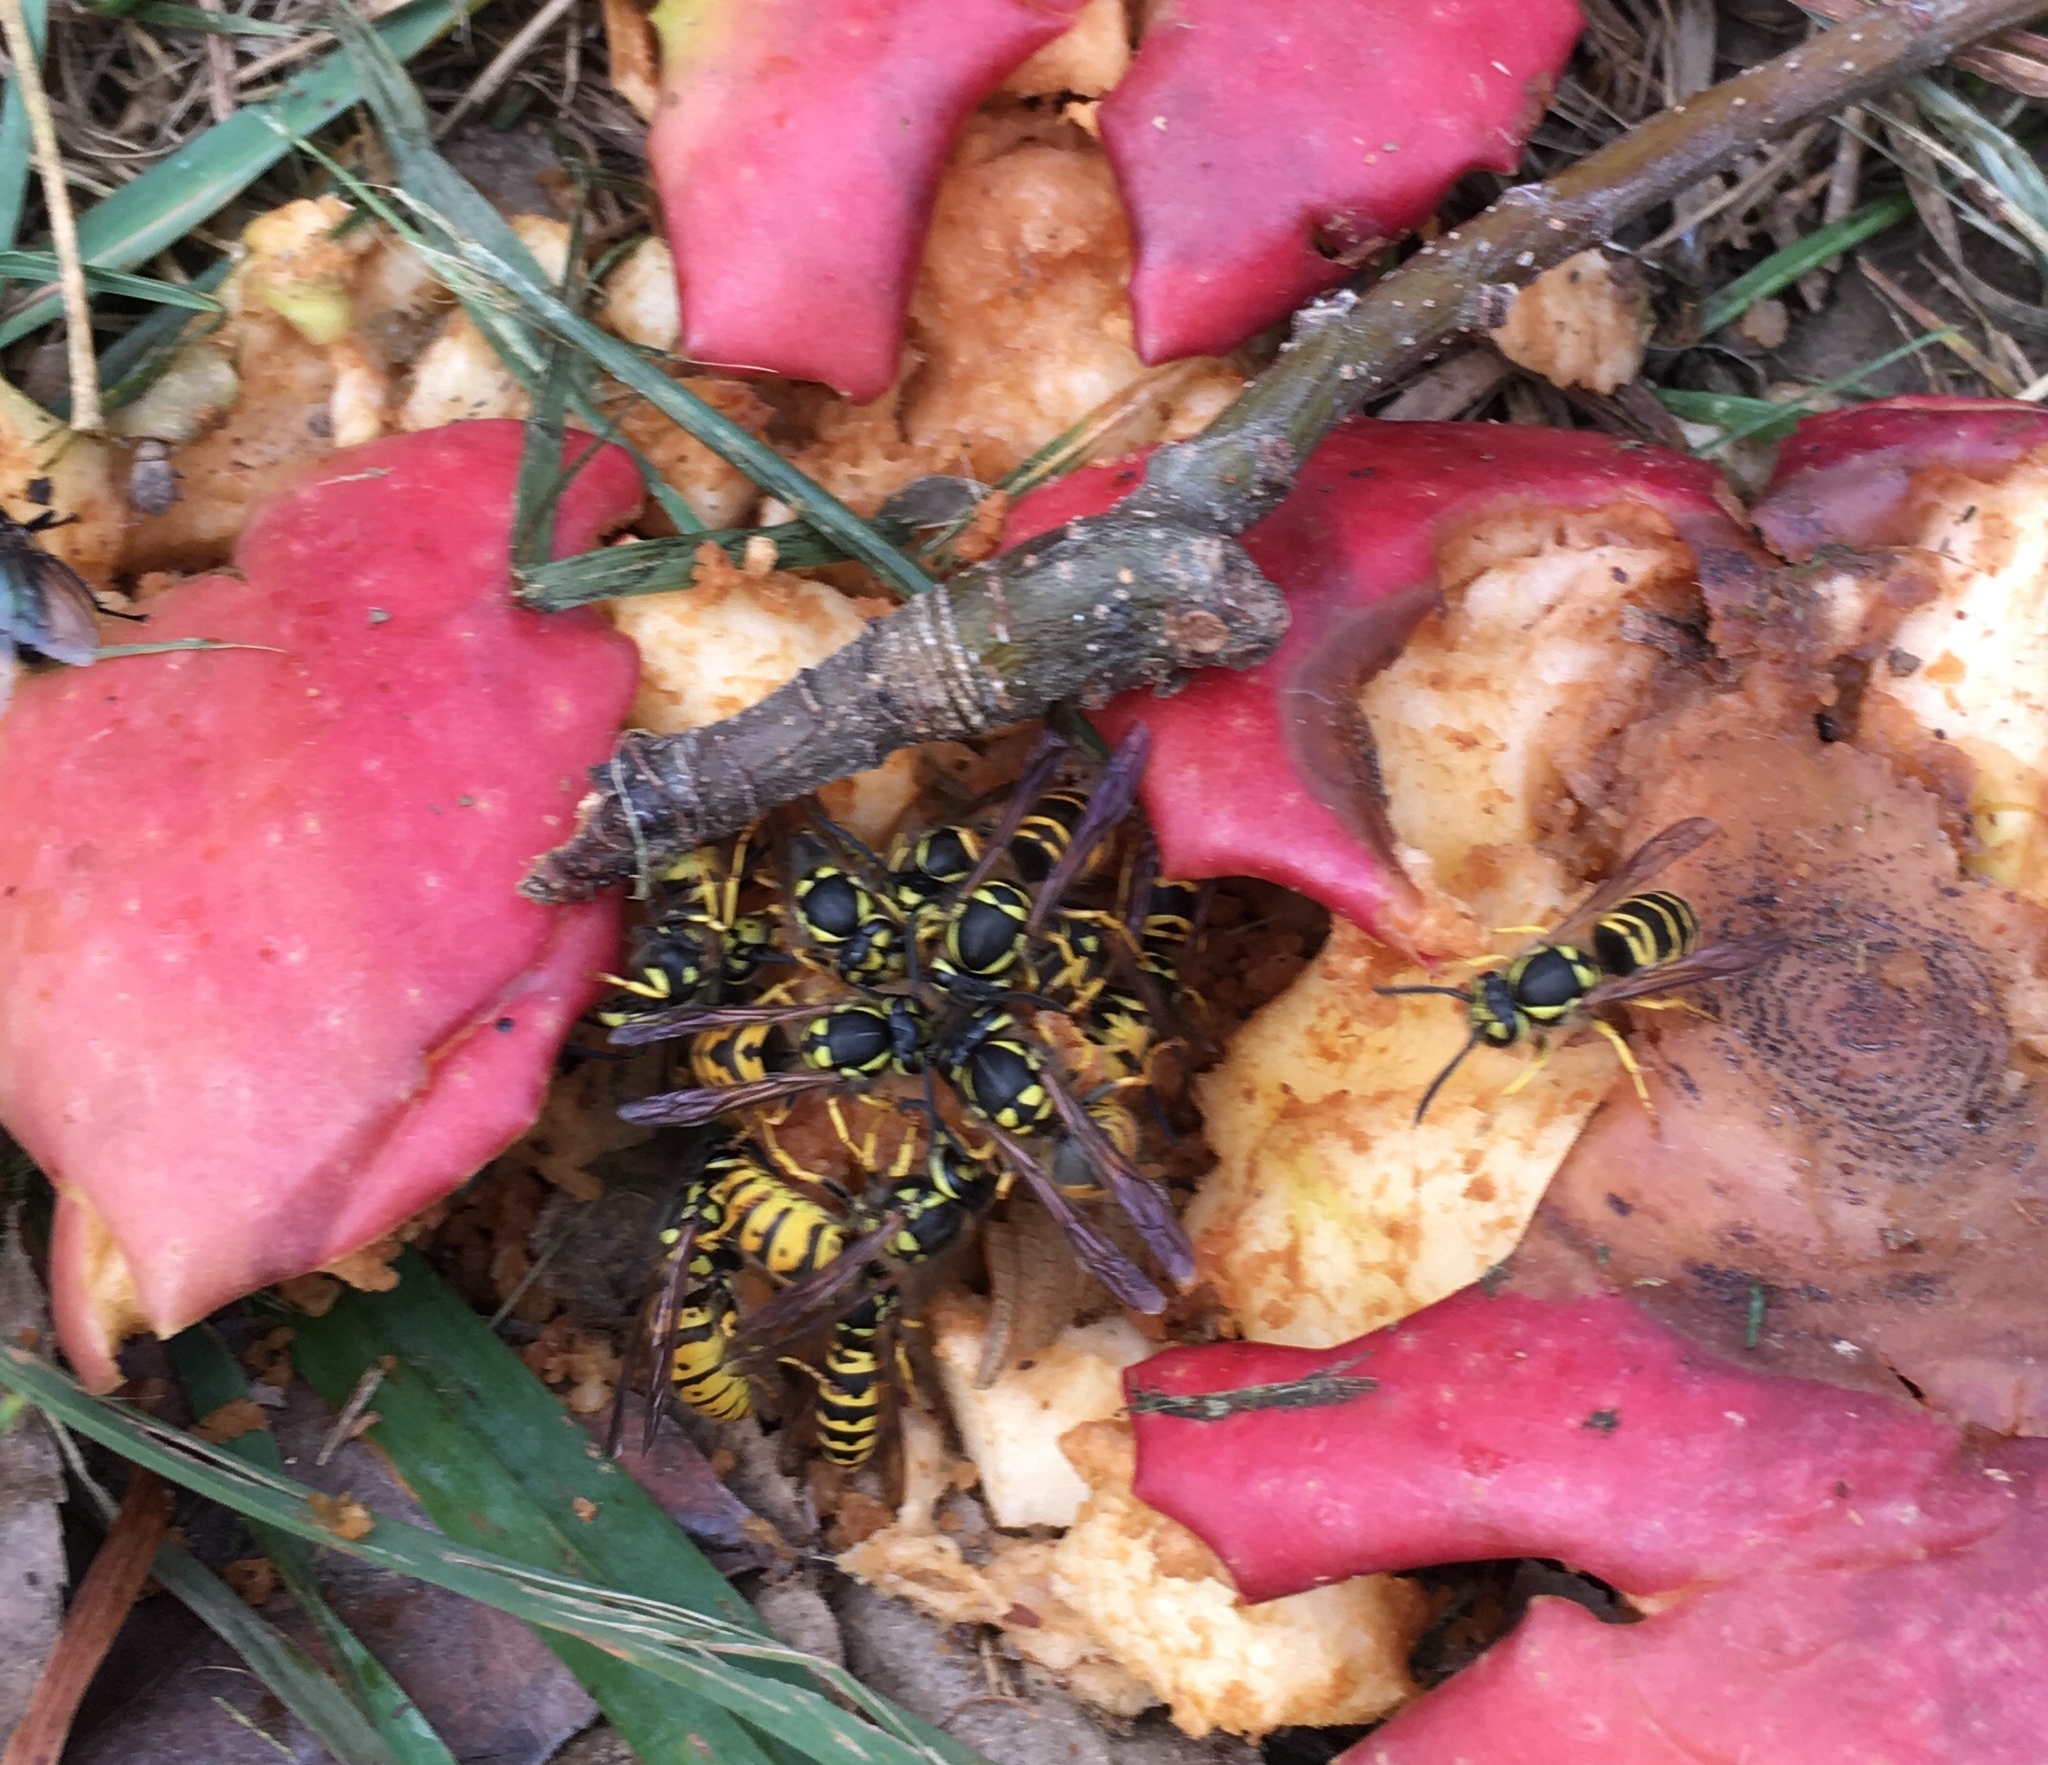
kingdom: Animalia
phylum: Arthropoda
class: Insecta
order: Hymenoptera
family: Vespidae
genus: Vespula
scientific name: Vespula
